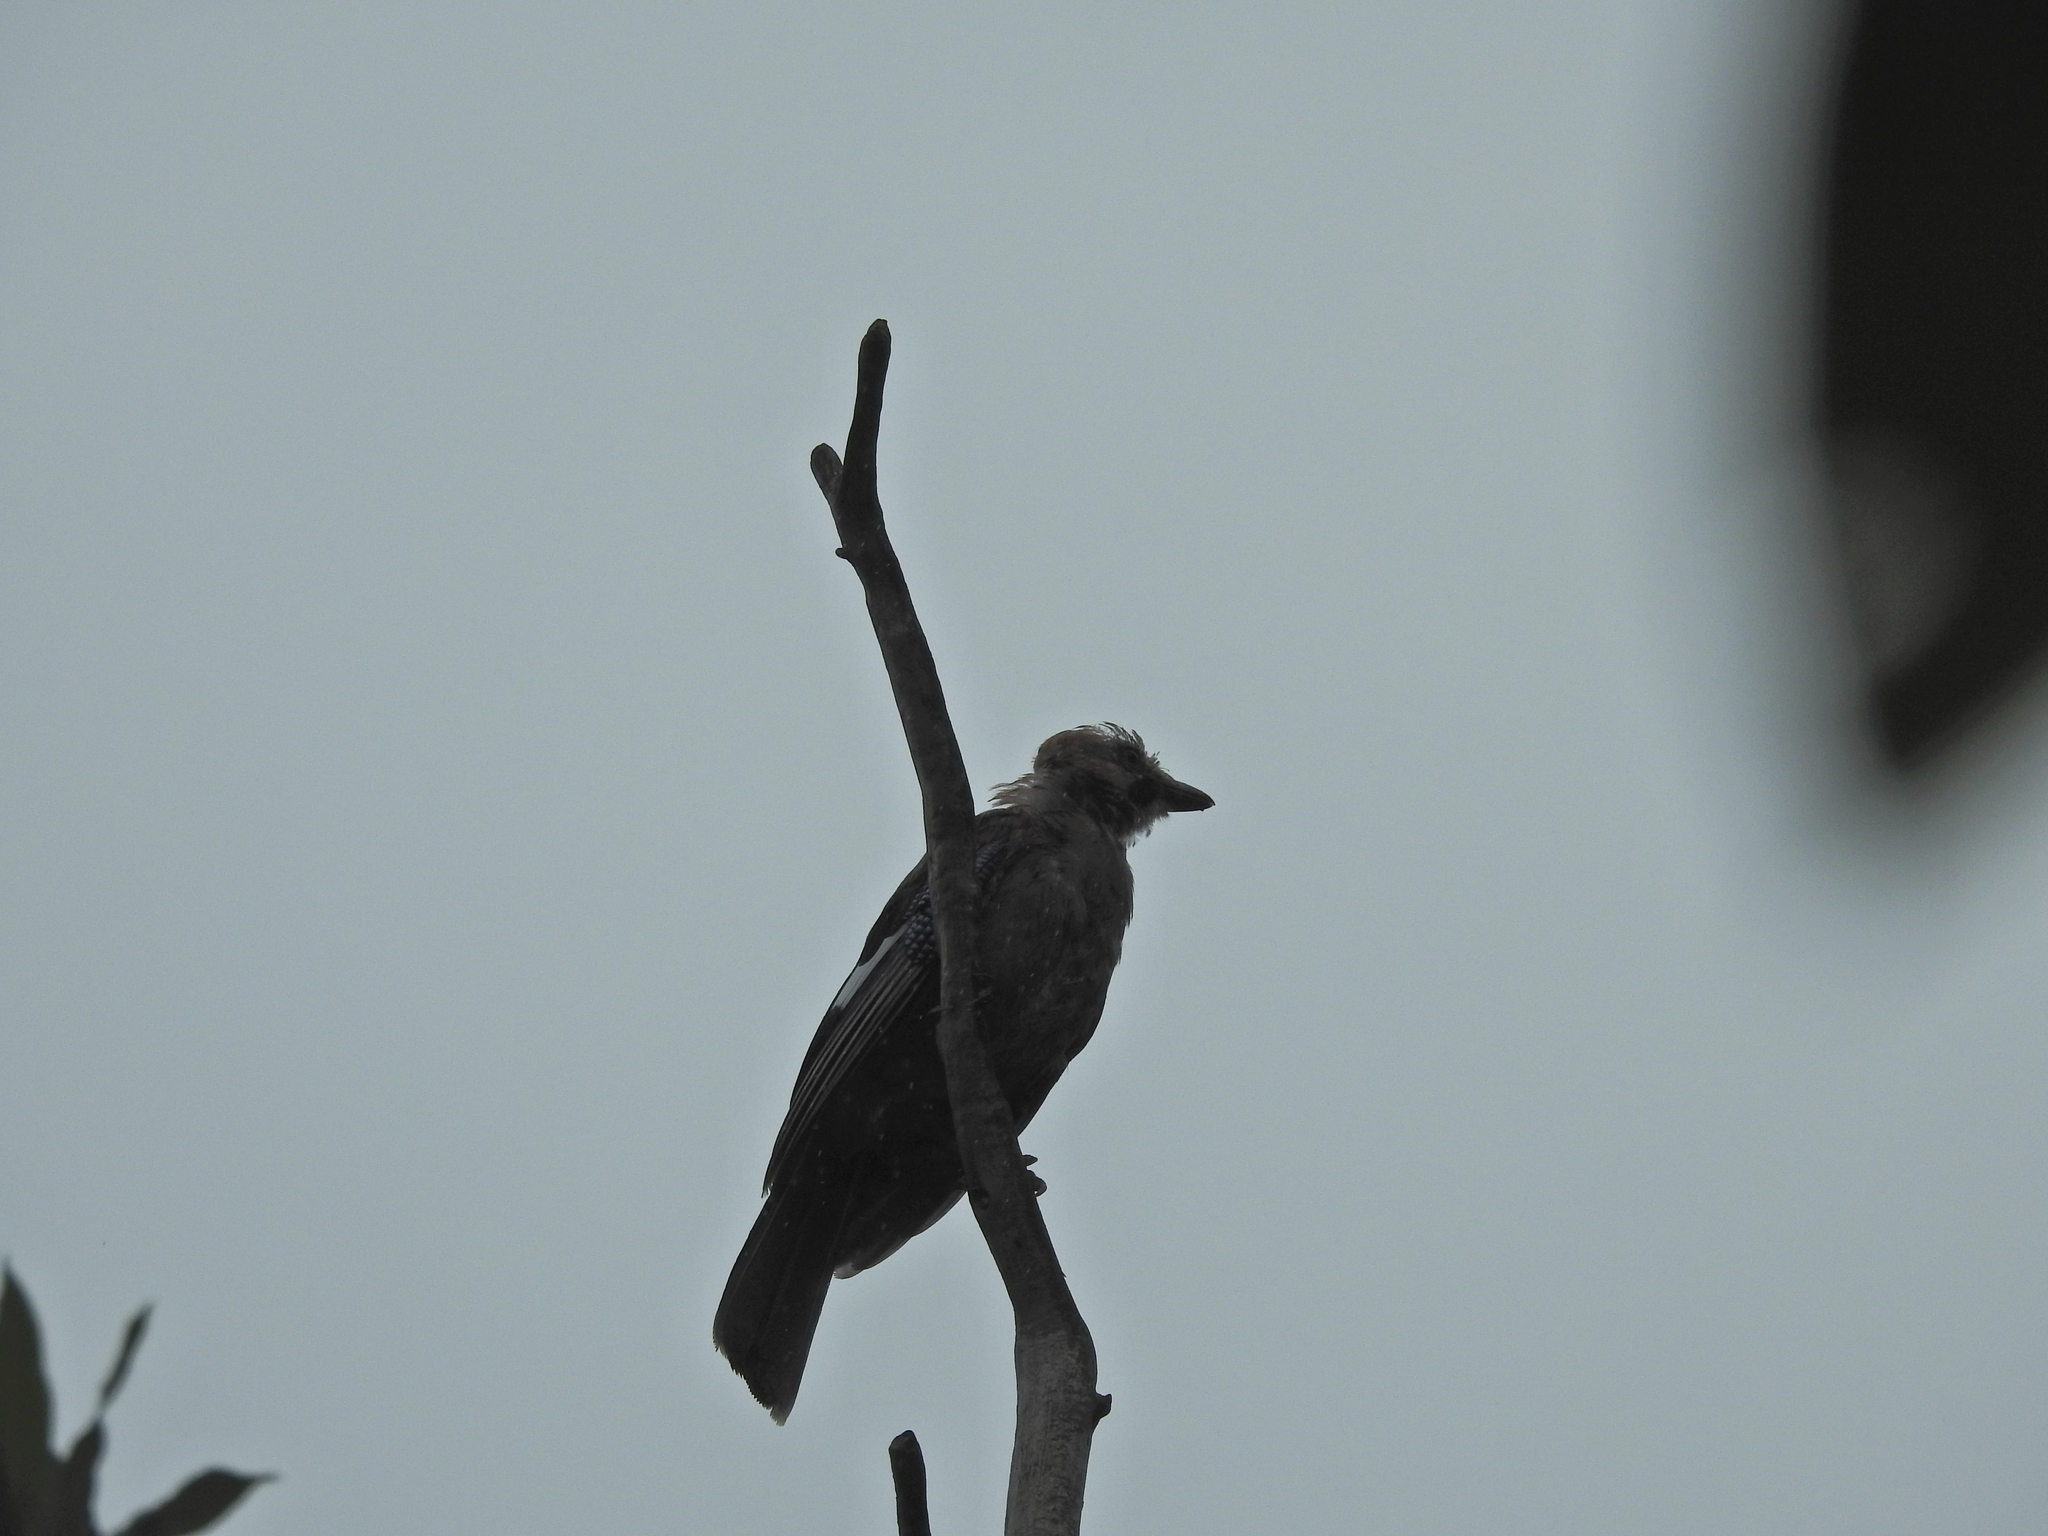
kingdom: Animalia
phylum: Chordata
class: Aves
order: Passeriformes
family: Corvidae
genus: Garrulus
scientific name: Garrulus glandarius
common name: Eurasian jay
